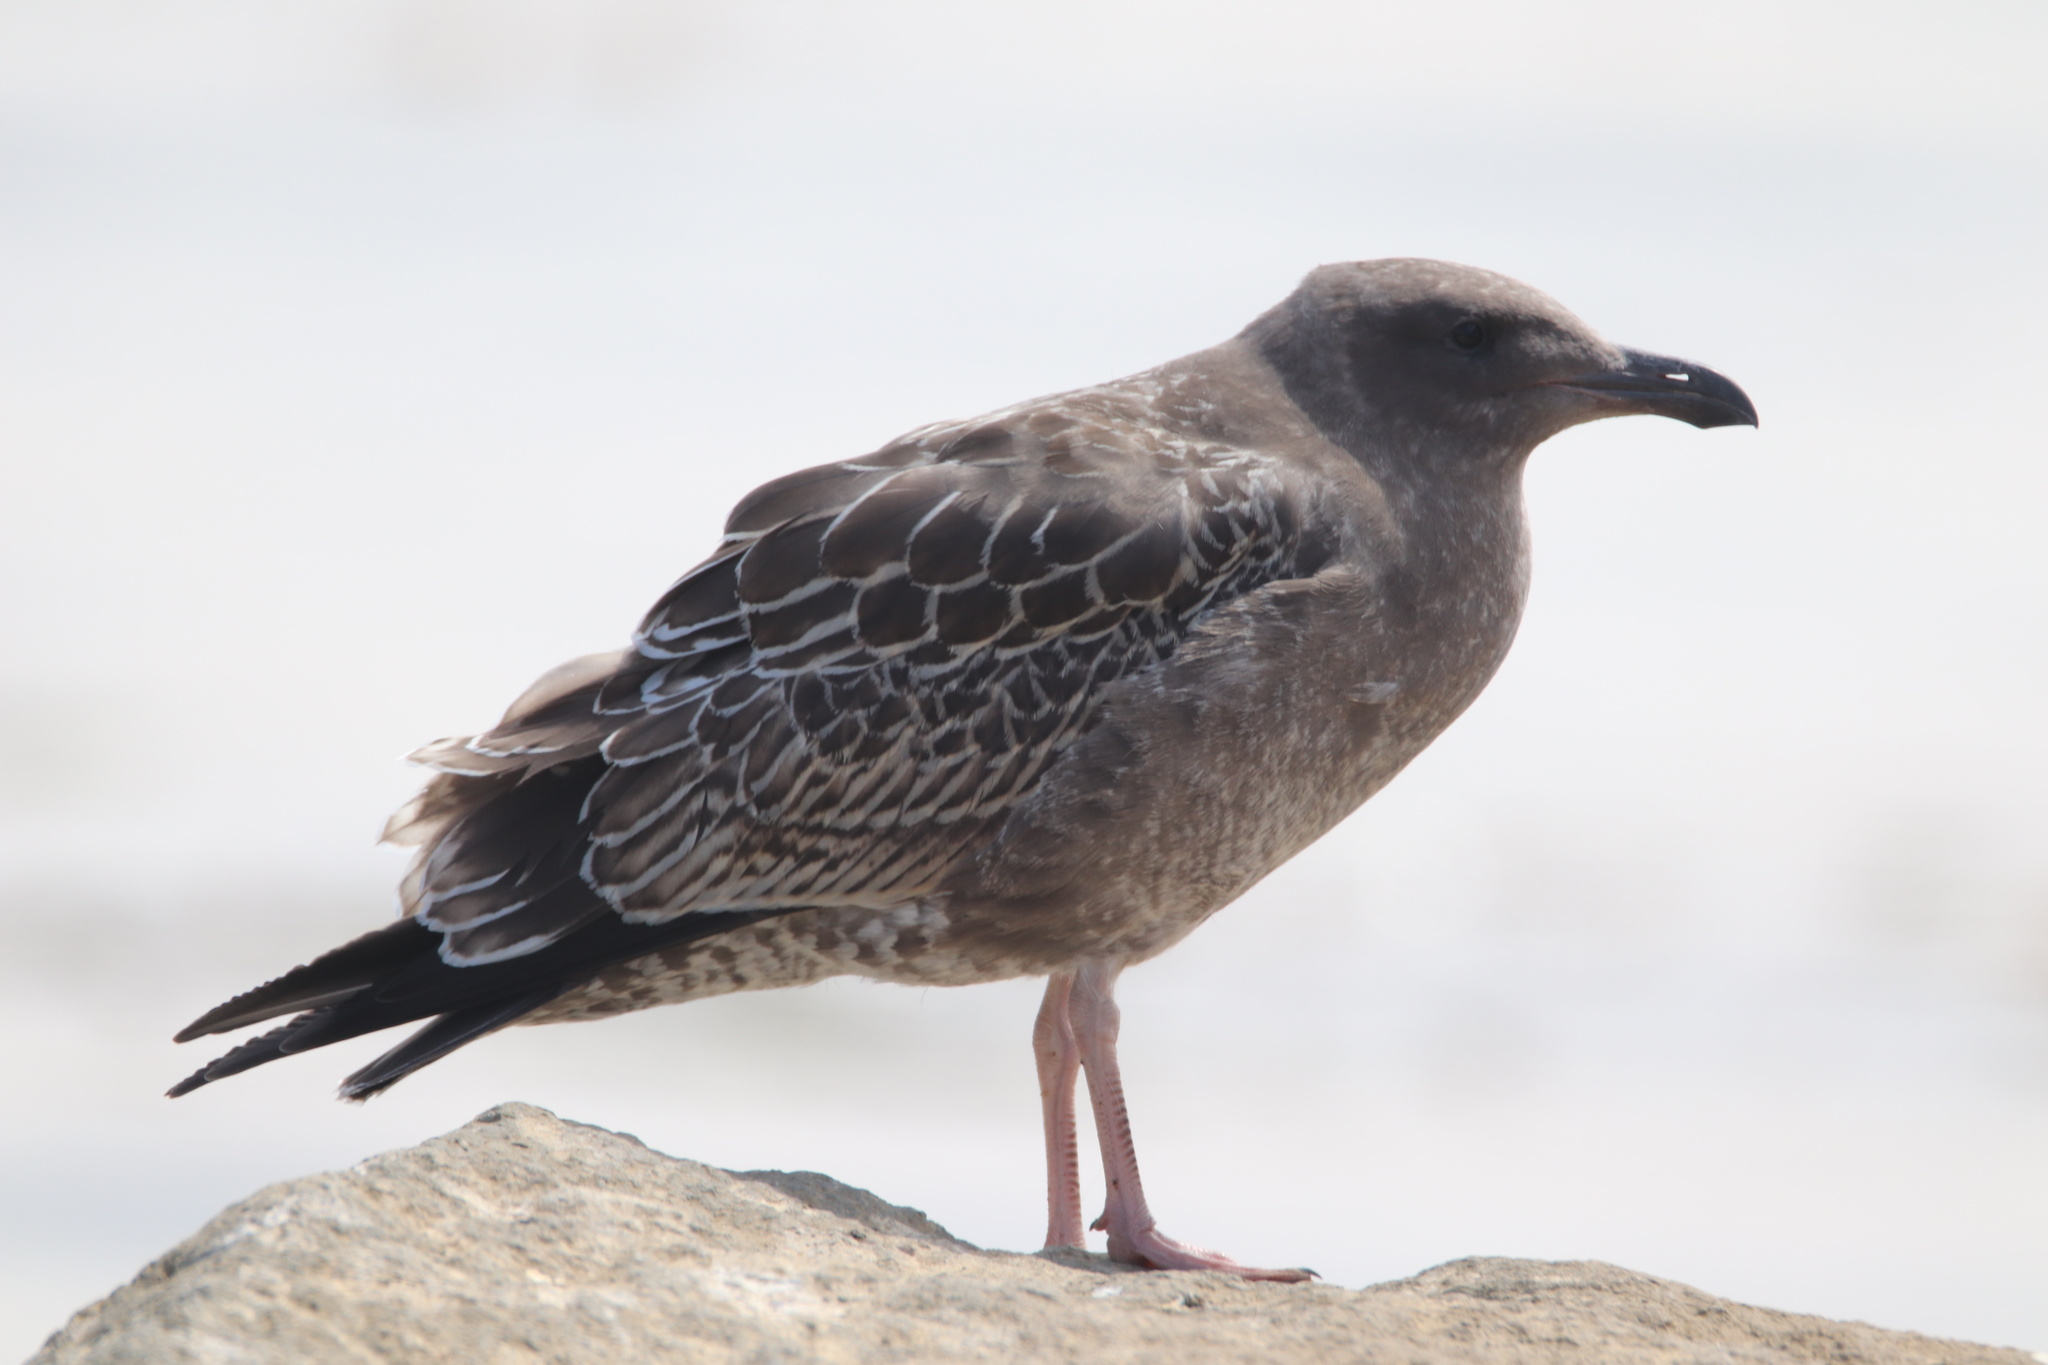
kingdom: Animalia
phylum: Chordata
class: Aves
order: Charadriiformes
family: Laridae
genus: Larus
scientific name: Larus occidentalis
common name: Western gull
